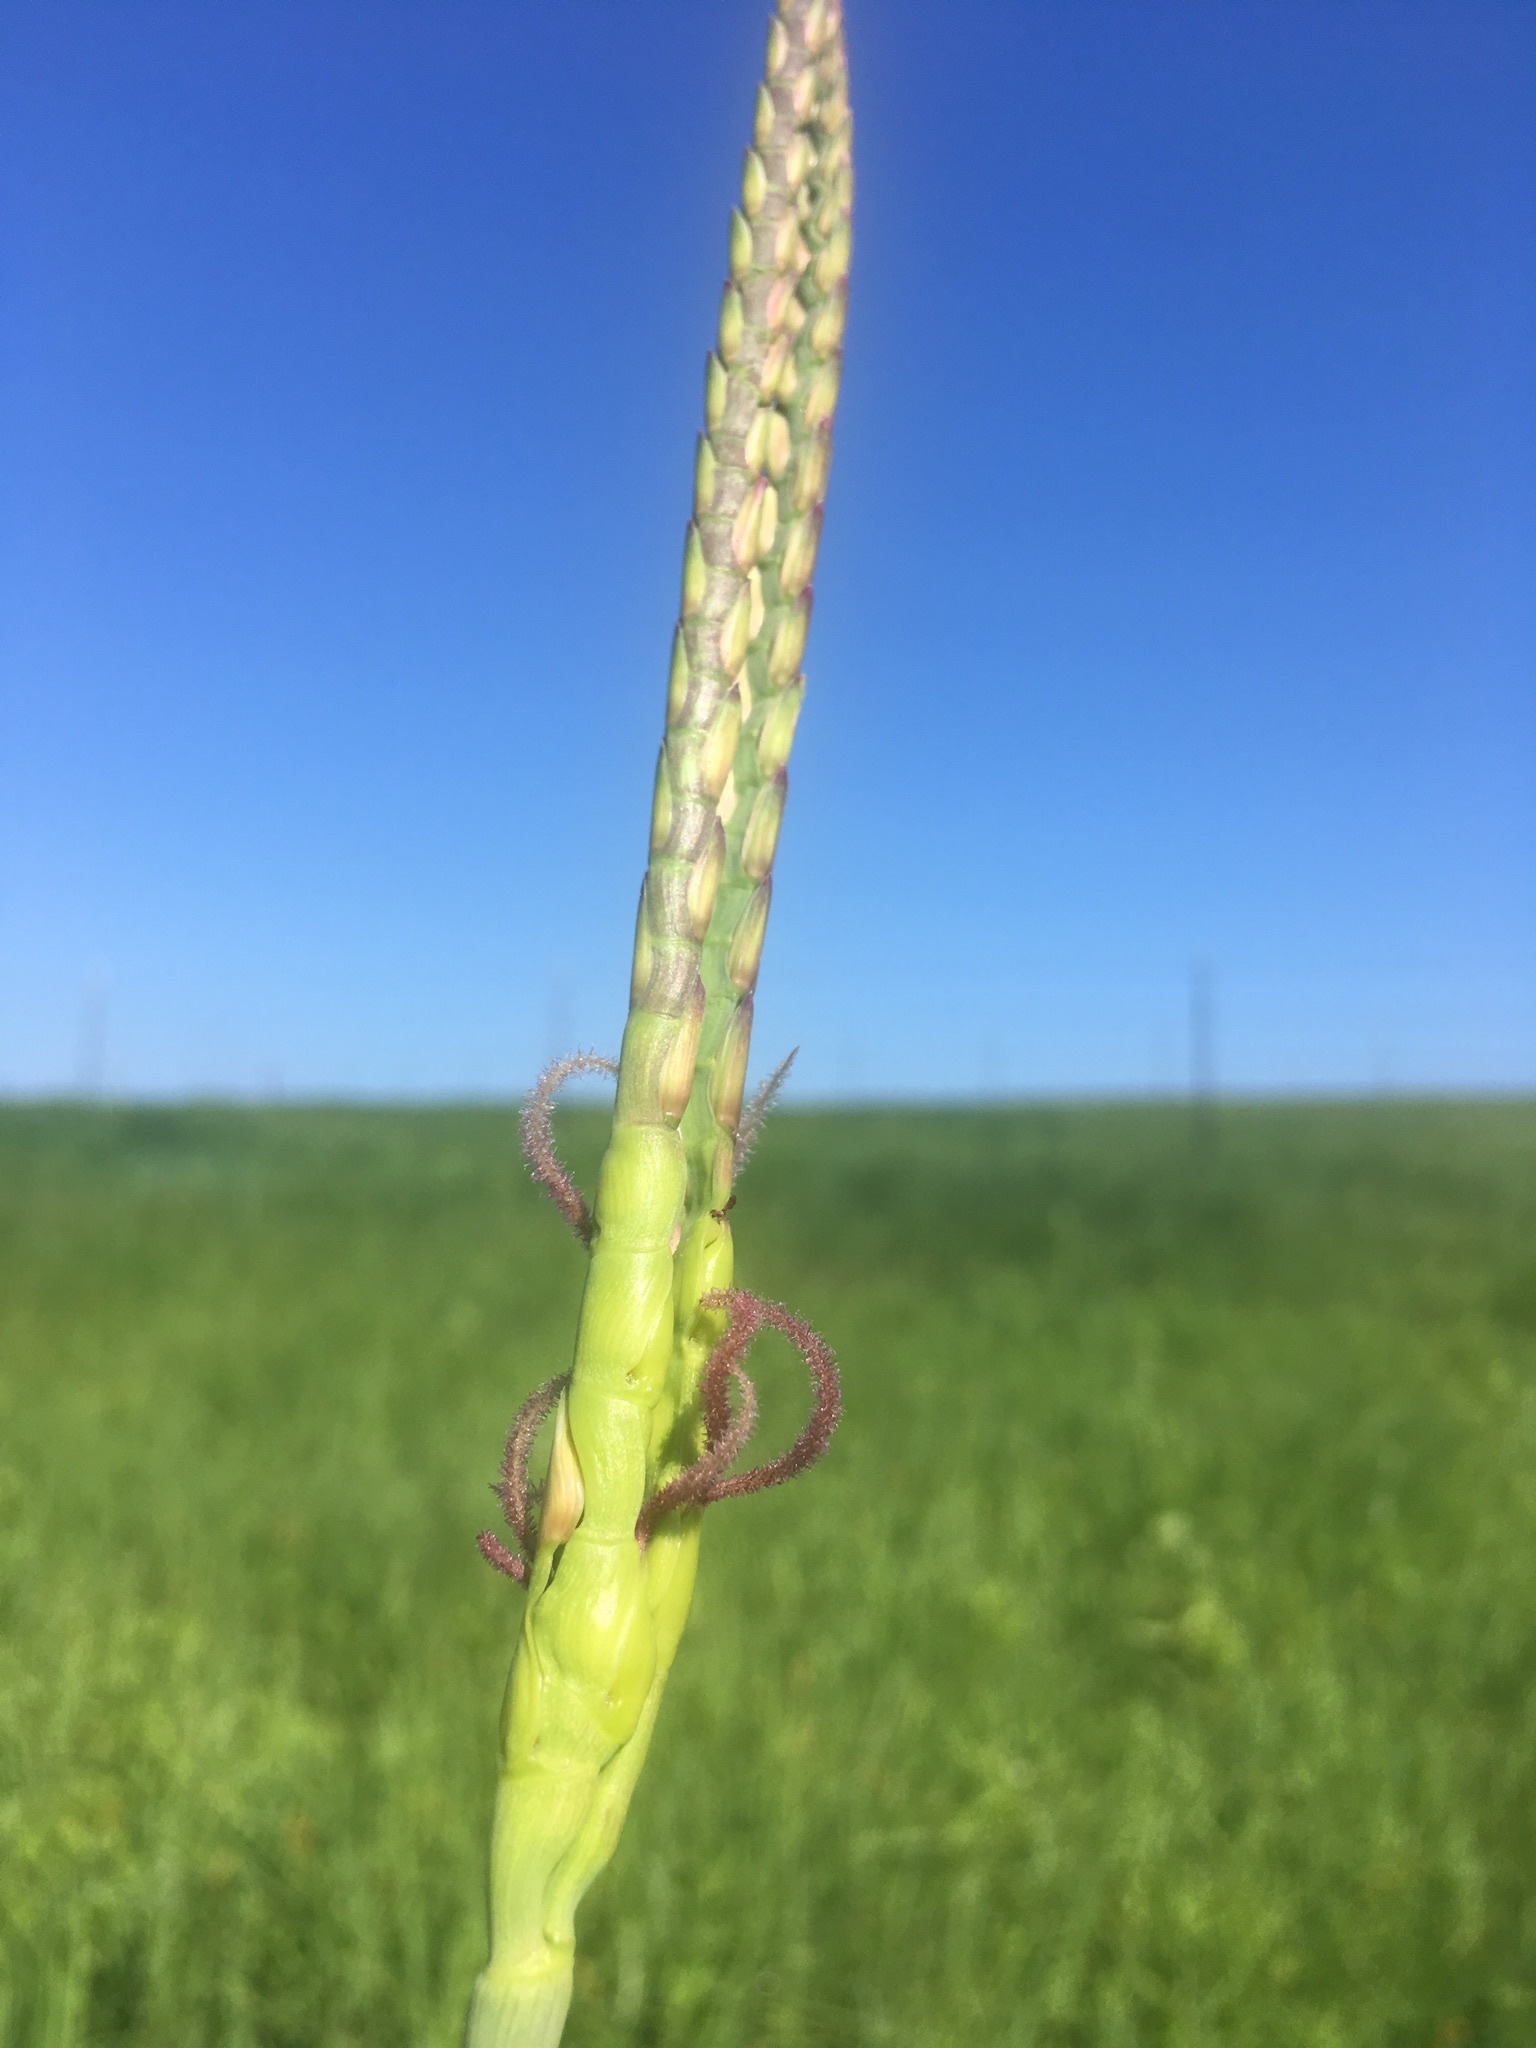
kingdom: Plantae
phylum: Tracheophyta
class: Liliopsida
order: Poales
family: Poaceae
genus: Tripsacum
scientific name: Tripsacum dactyloides
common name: Buffalo-grass
